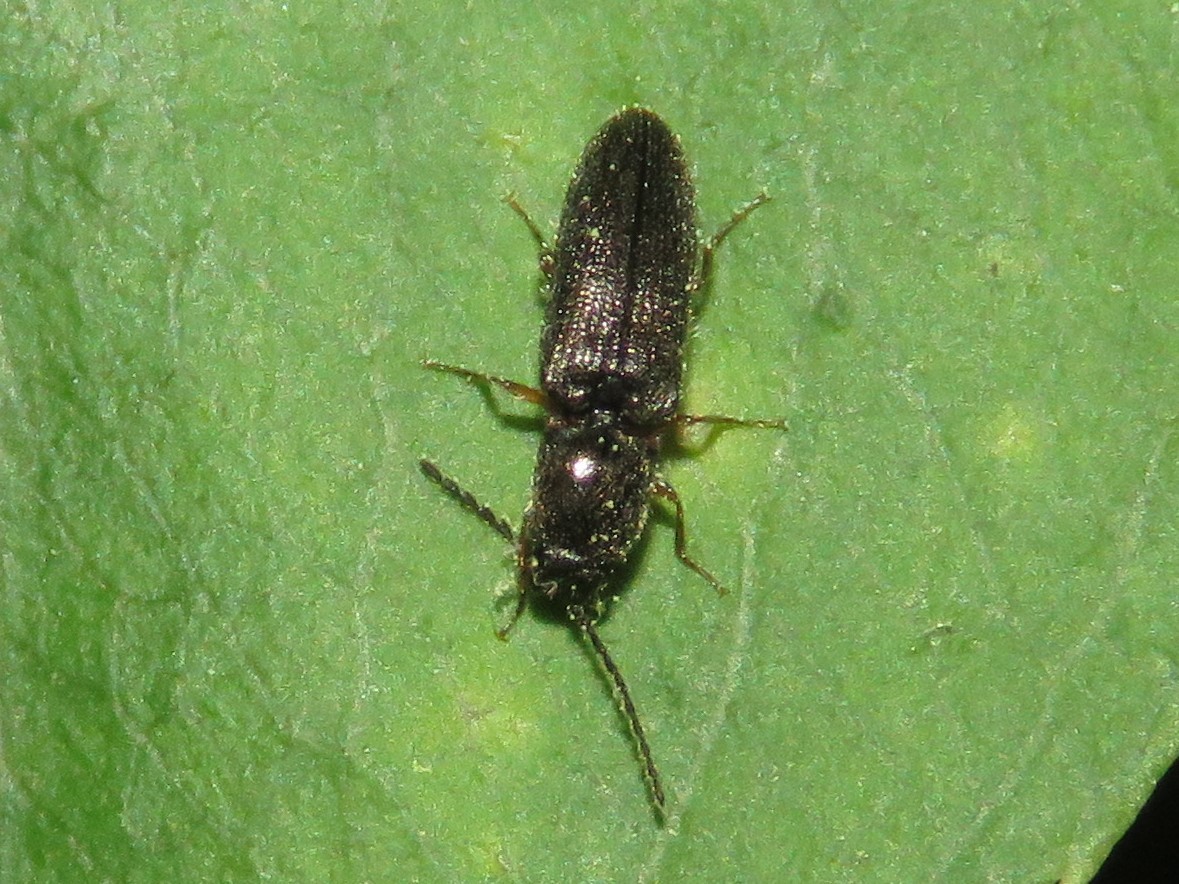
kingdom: Animalia
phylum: Arthropoda
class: Insecta
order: Coleoptera
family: Elateridae
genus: Limonius
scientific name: Limonius basilaris
